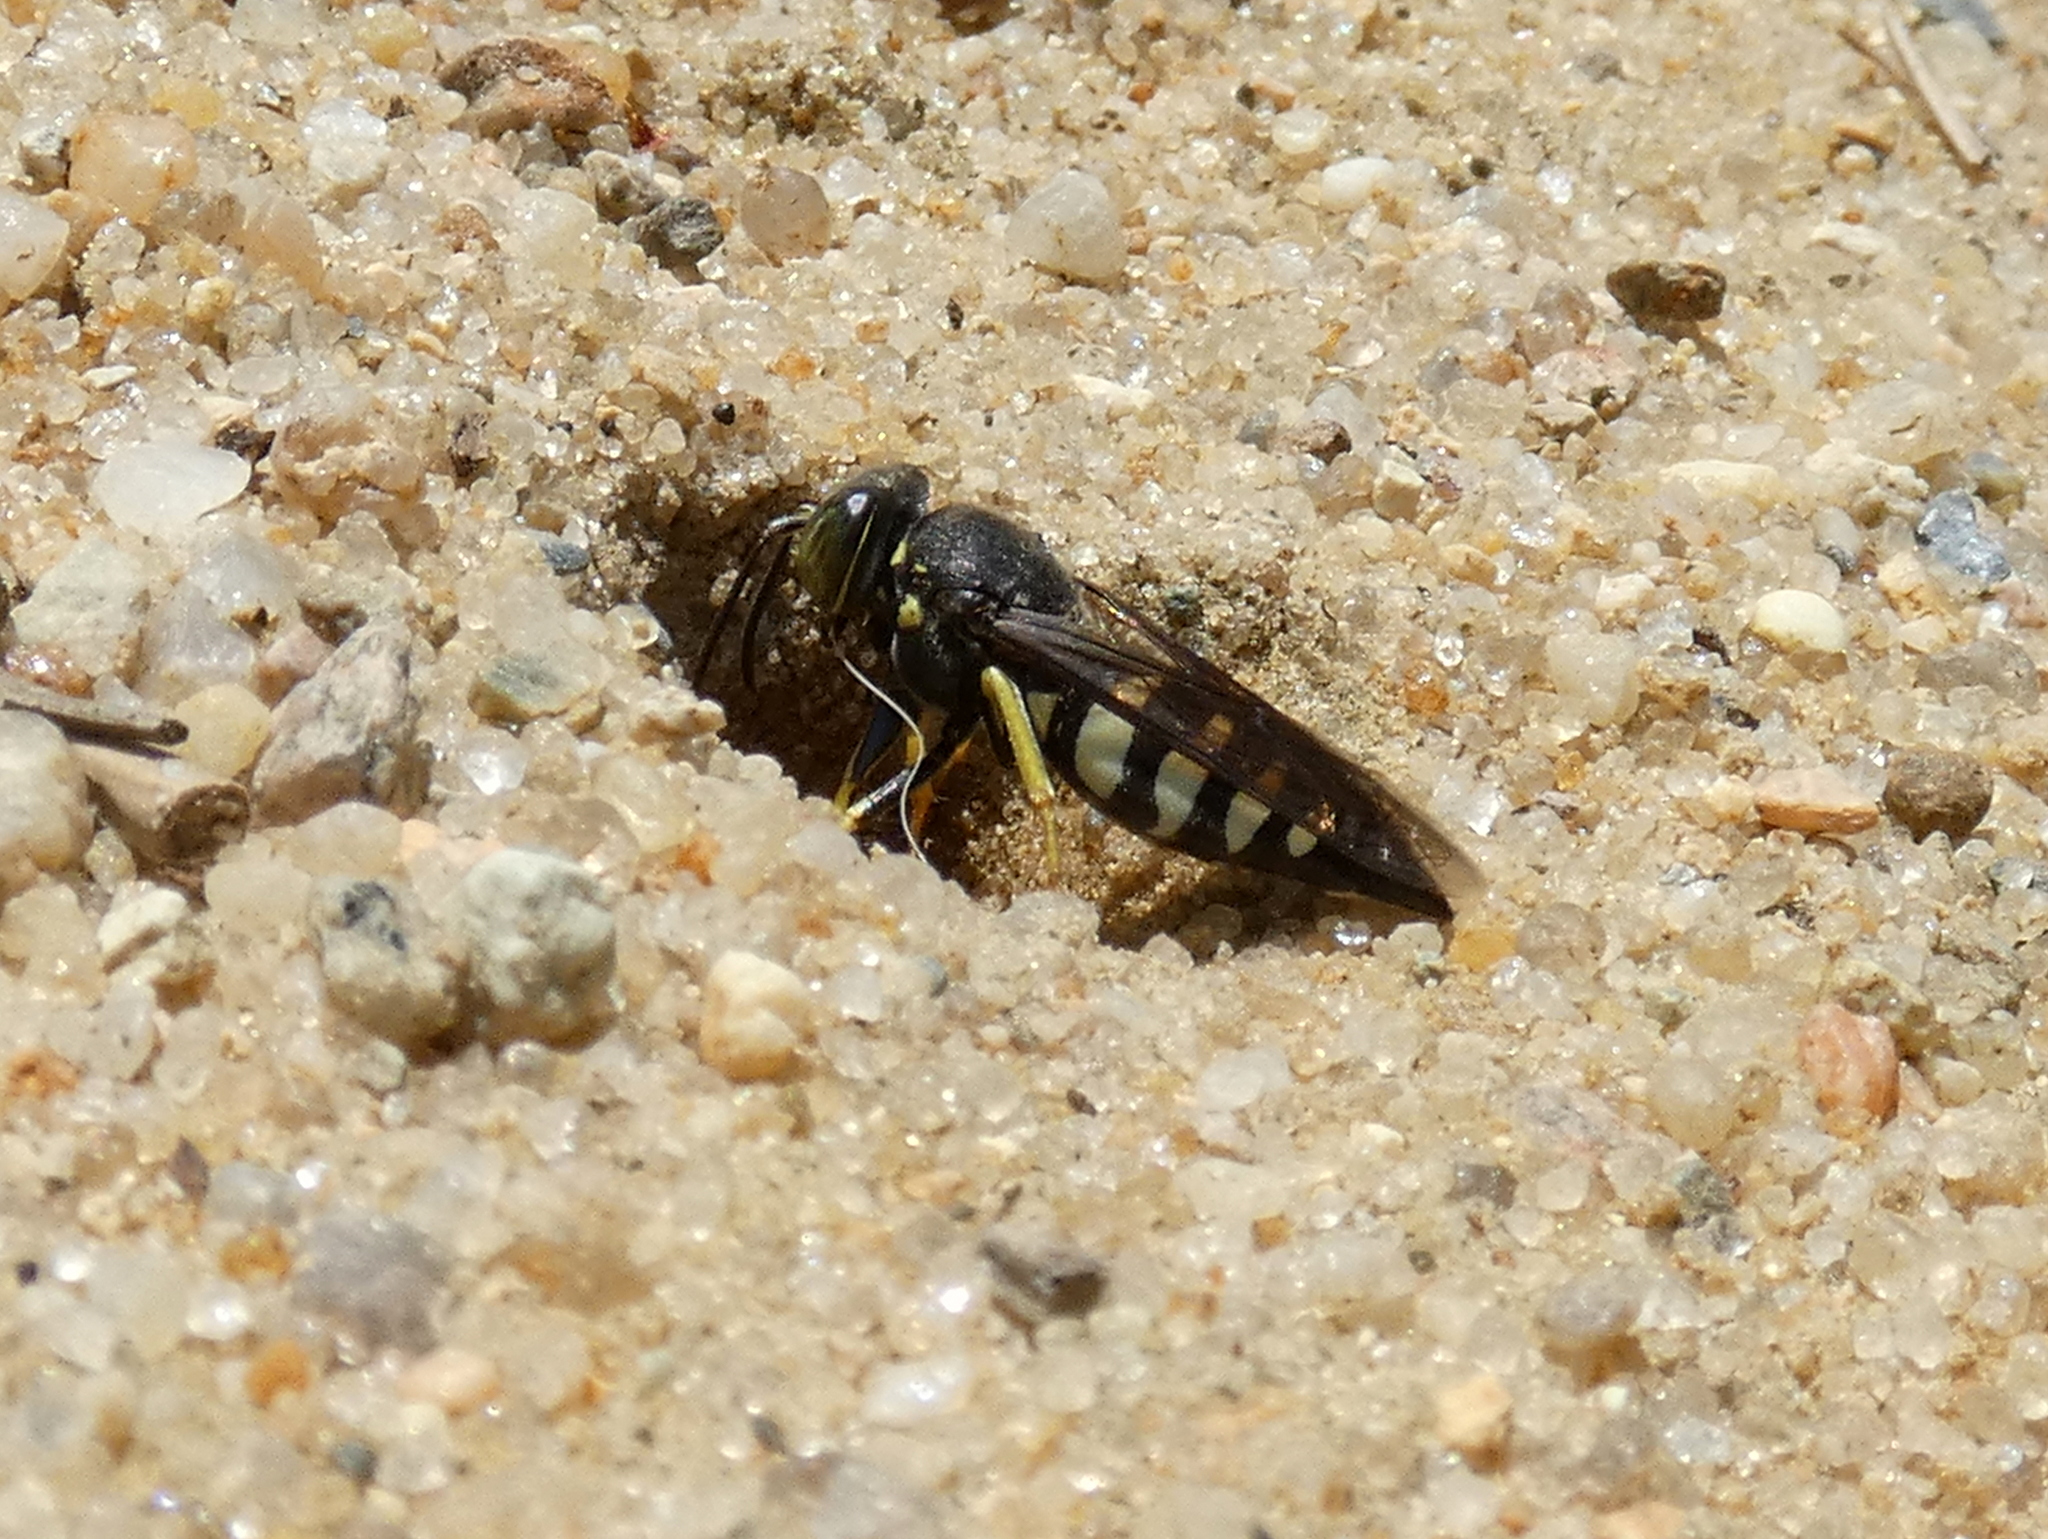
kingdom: Animalia
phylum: Arthropoda
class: Insecta
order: Hymenoptera
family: Crabronidae
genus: Bicyrtes
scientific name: Bicyrtes quadrifasciatus
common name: Four-banded stink bug hunter wasp
